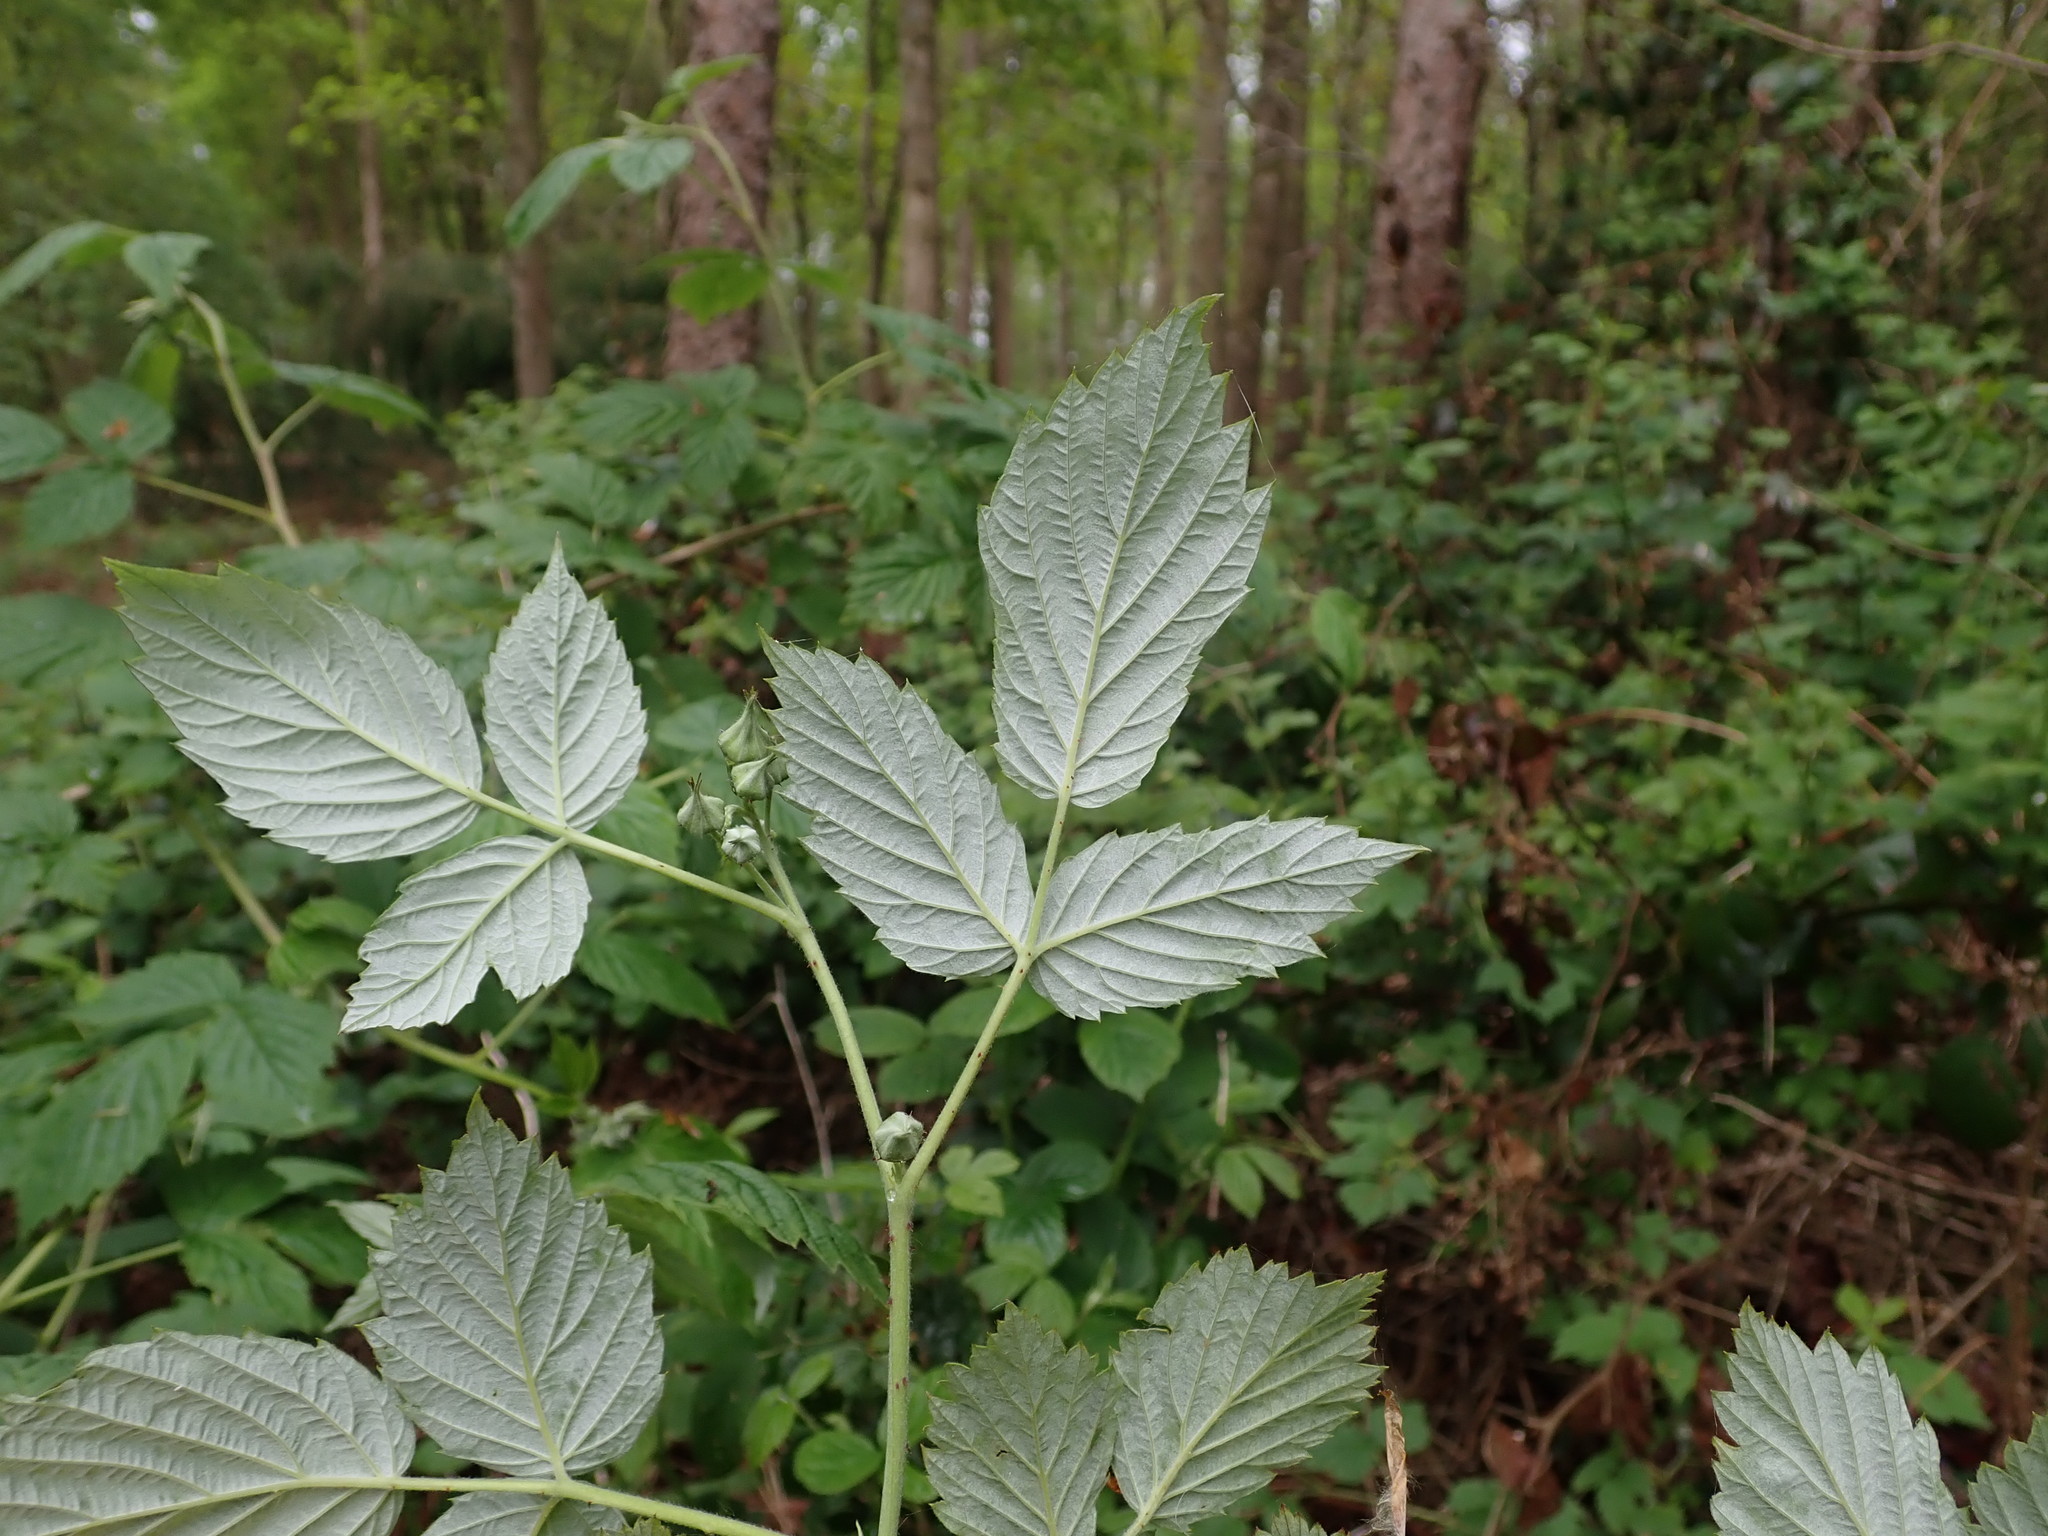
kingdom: Plantae
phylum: Tracheophyta
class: Magnoliopsida
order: Rosales
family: Rosaceae
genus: Rubus
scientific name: Rubus idaeus
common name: Raspberry
